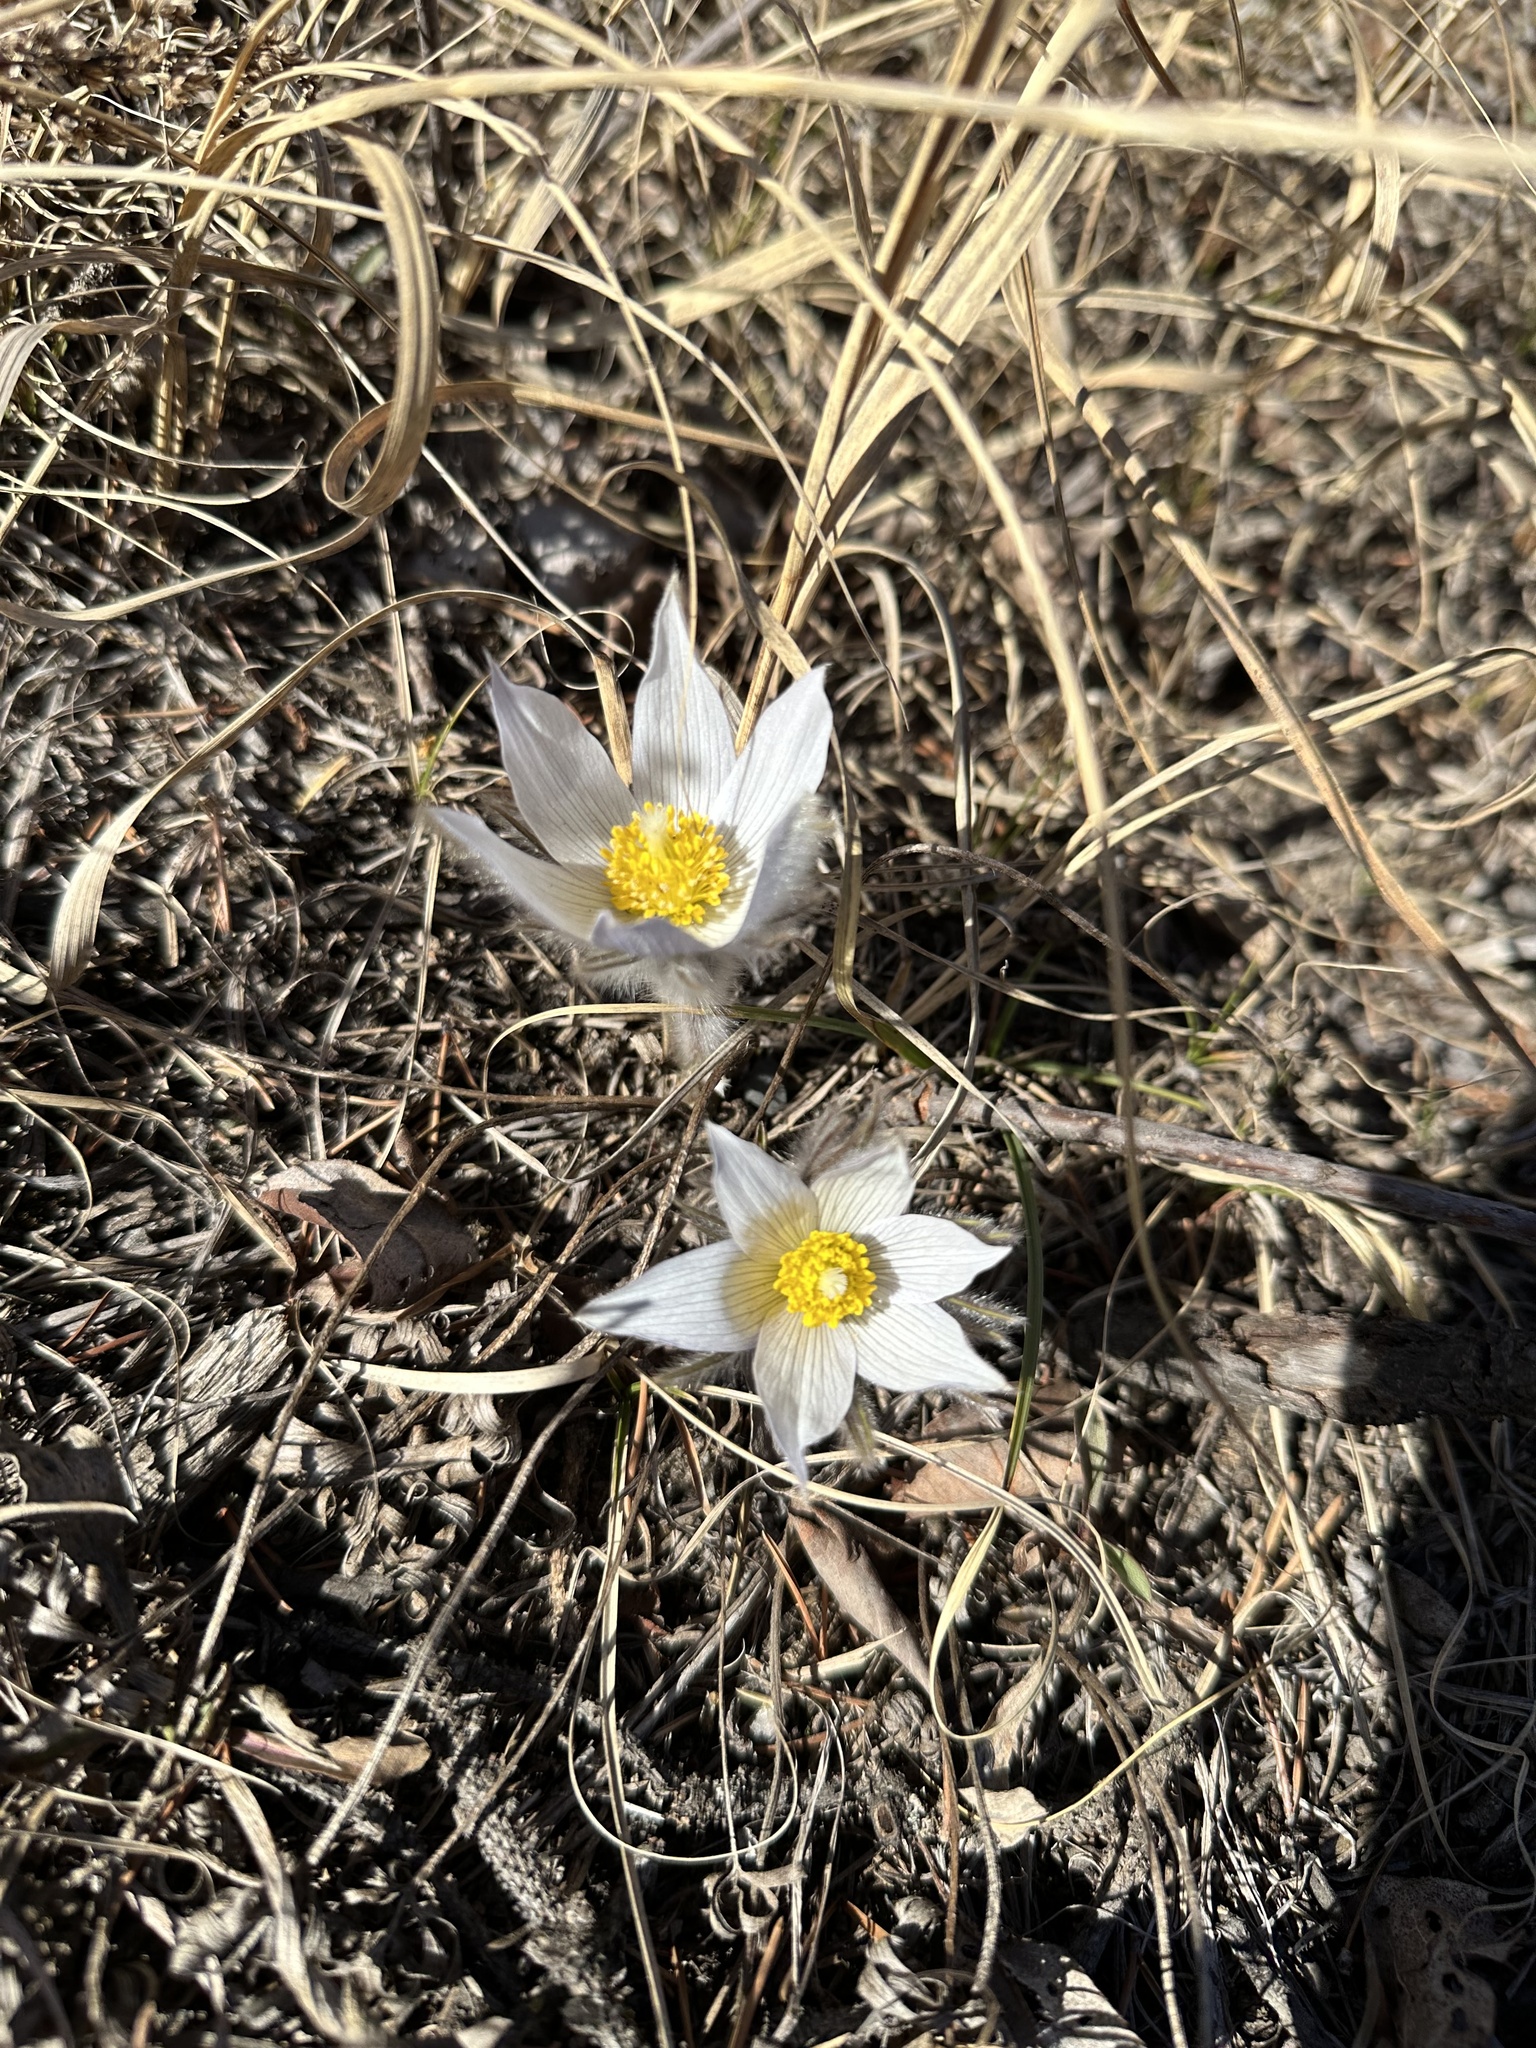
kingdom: Plantae
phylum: Tracheophyta
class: Magnoliopsida
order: Ranunculales
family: Ranunculaceae
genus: Pulsatilla
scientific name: Pulsatilla nuttalliana
